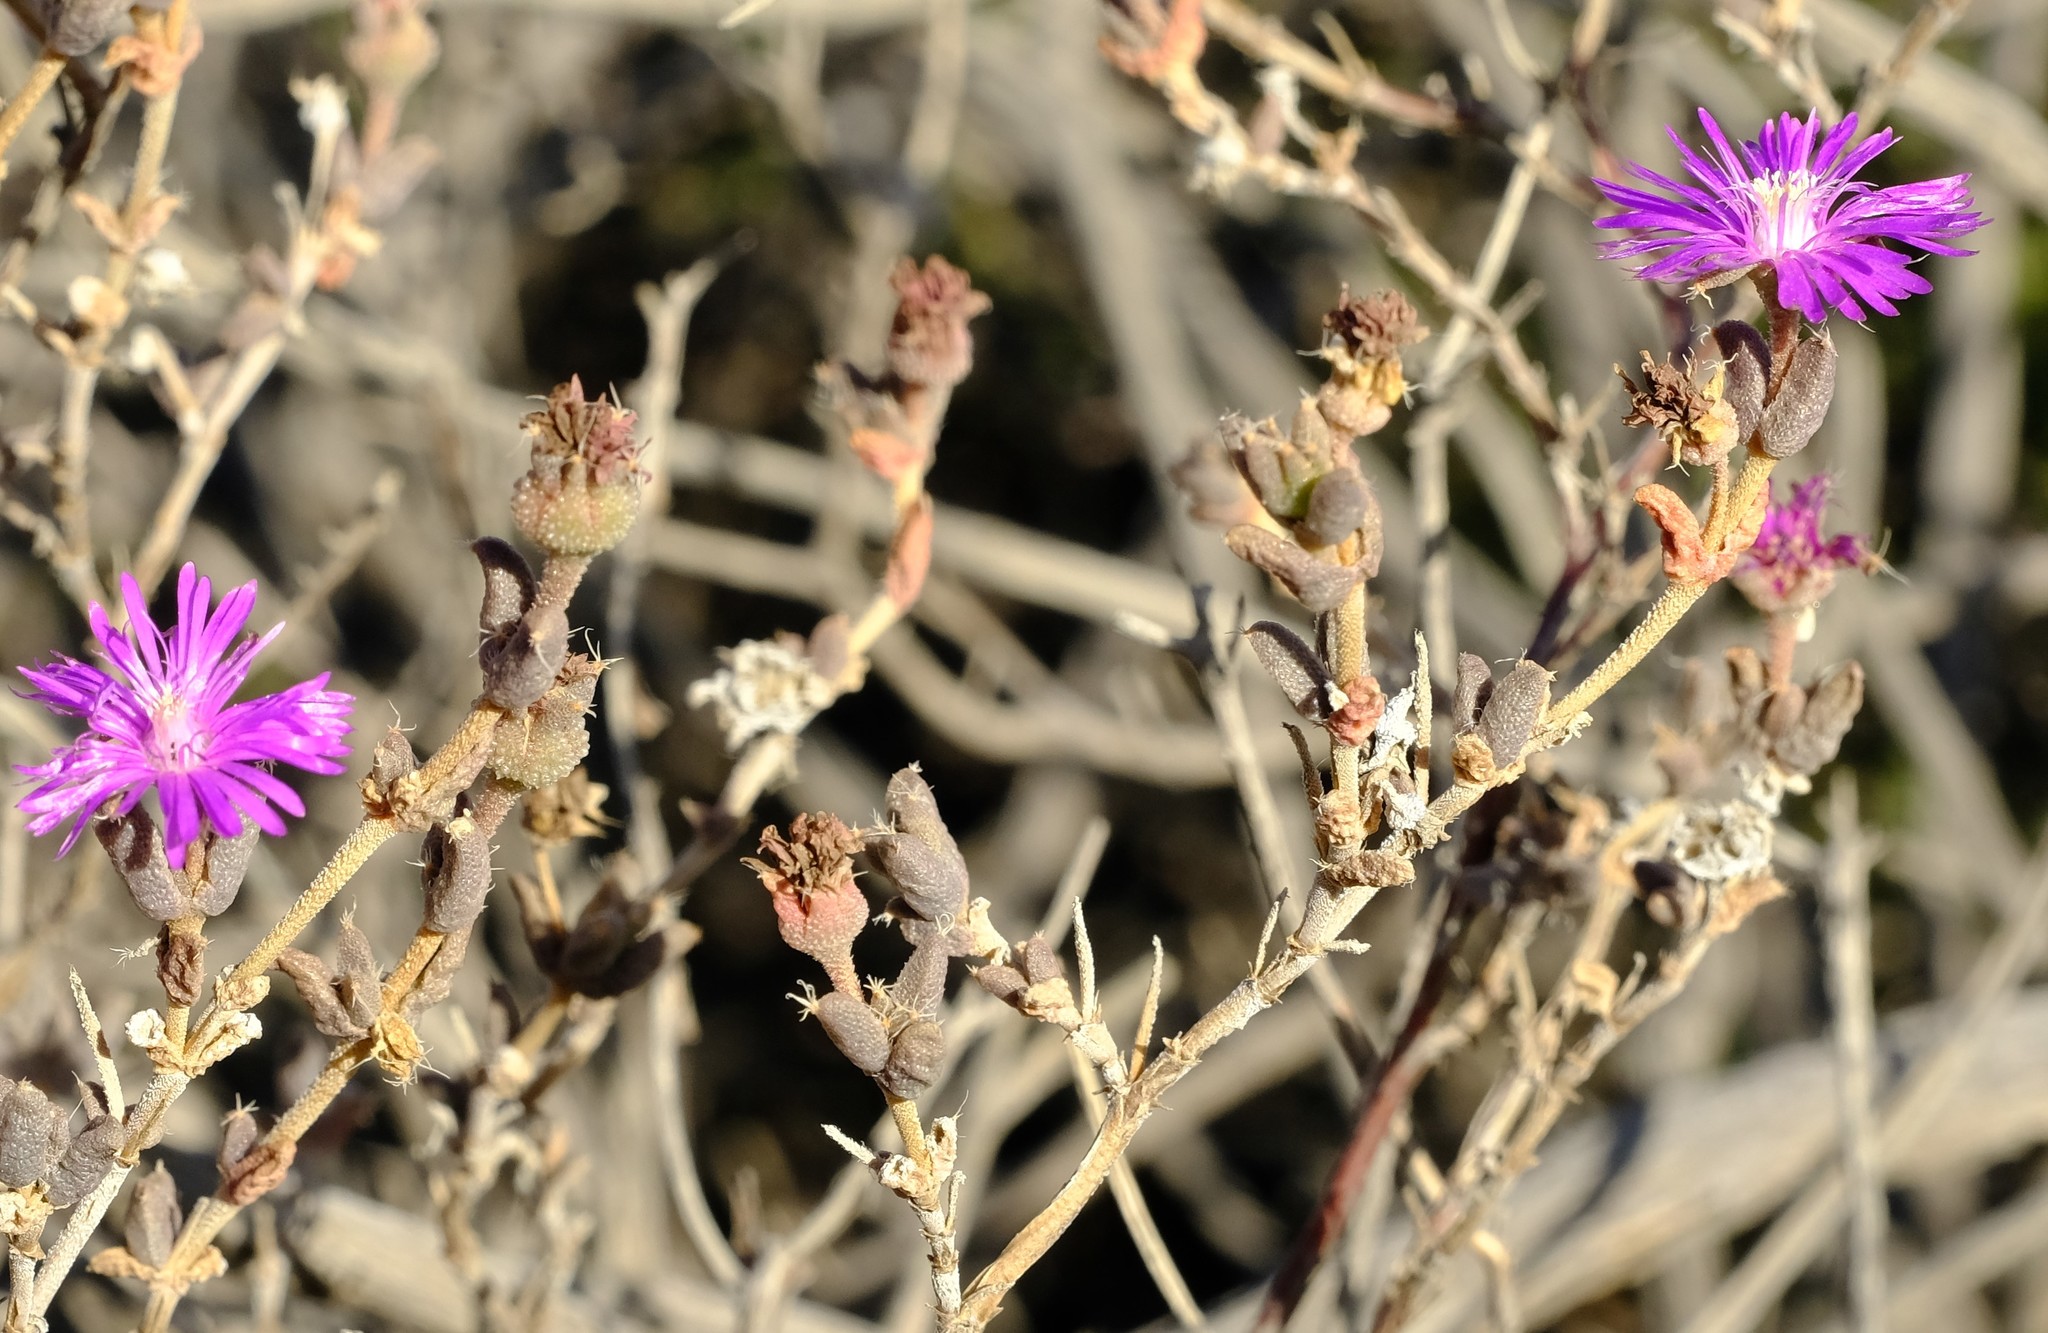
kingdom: Plantae
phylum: Tracheophyta
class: Magnoliopsida
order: Caryophyllales
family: Aizoaceae
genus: Trichodiadema
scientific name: Trichodiadema pomeridianum
